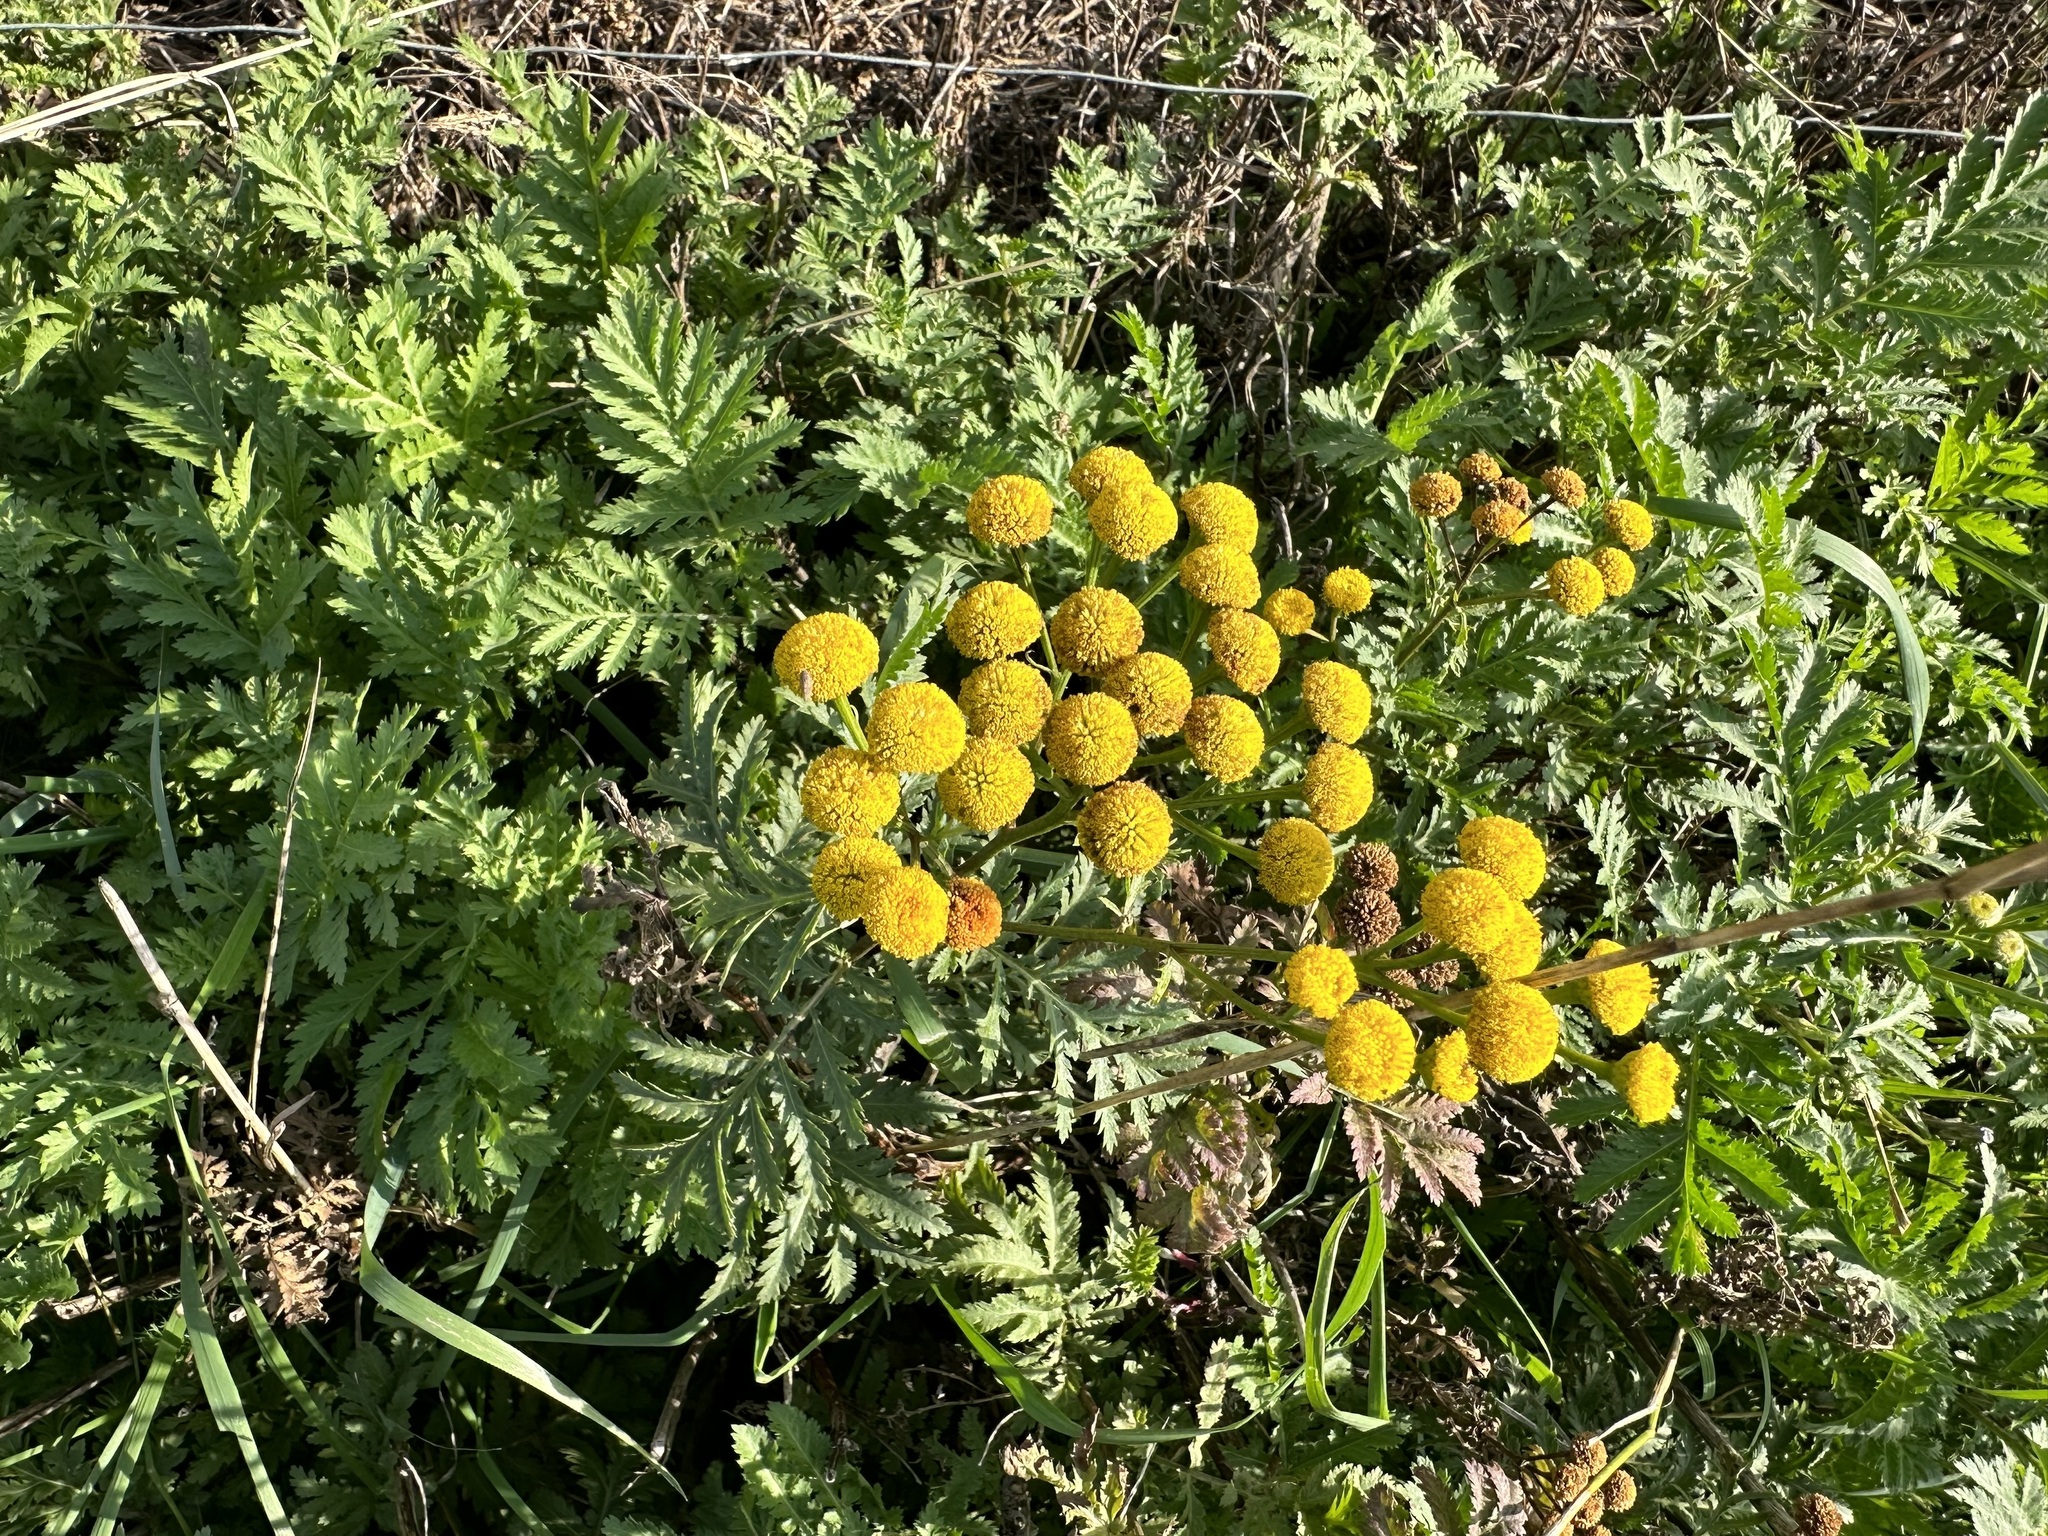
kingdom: Plantae
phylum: Tracheophyta
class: Magnoliopsida
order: Asterales
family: Asteraceae
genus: Tanacetum
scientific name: Tanacetum vulgare
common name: Common tansy
